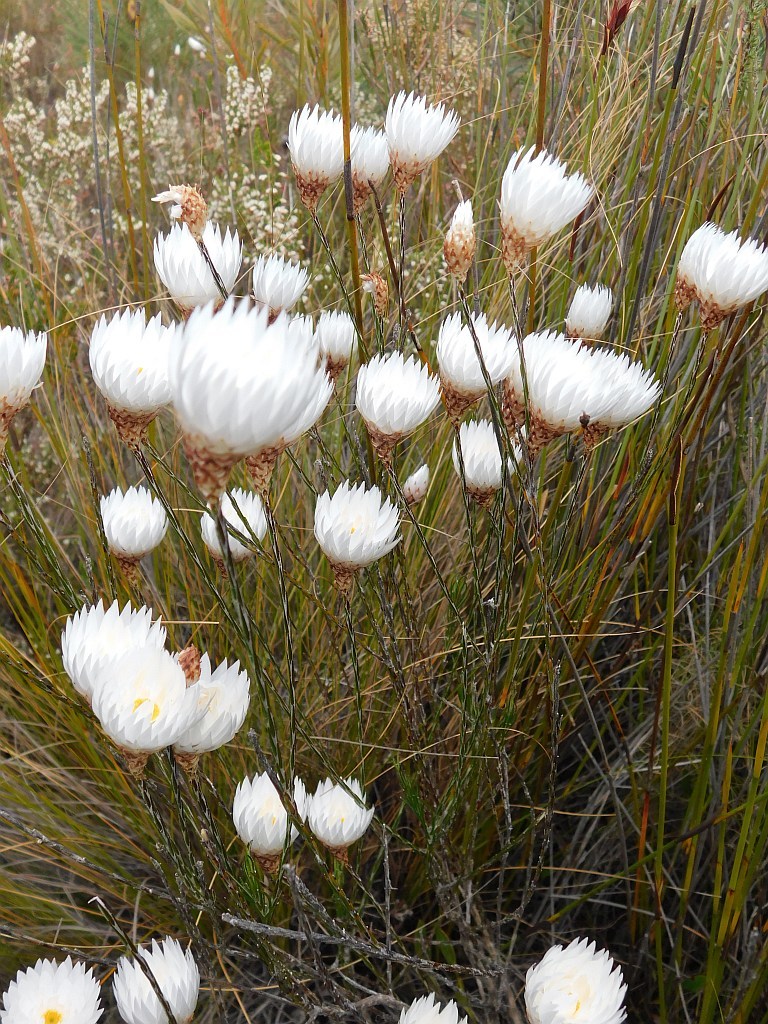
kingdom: Plantae
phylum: Tracheophyta
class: Magnoliopsida
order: Asterales
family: Asteraceae
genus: Edmondia
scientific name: Edmondia pinifolia
